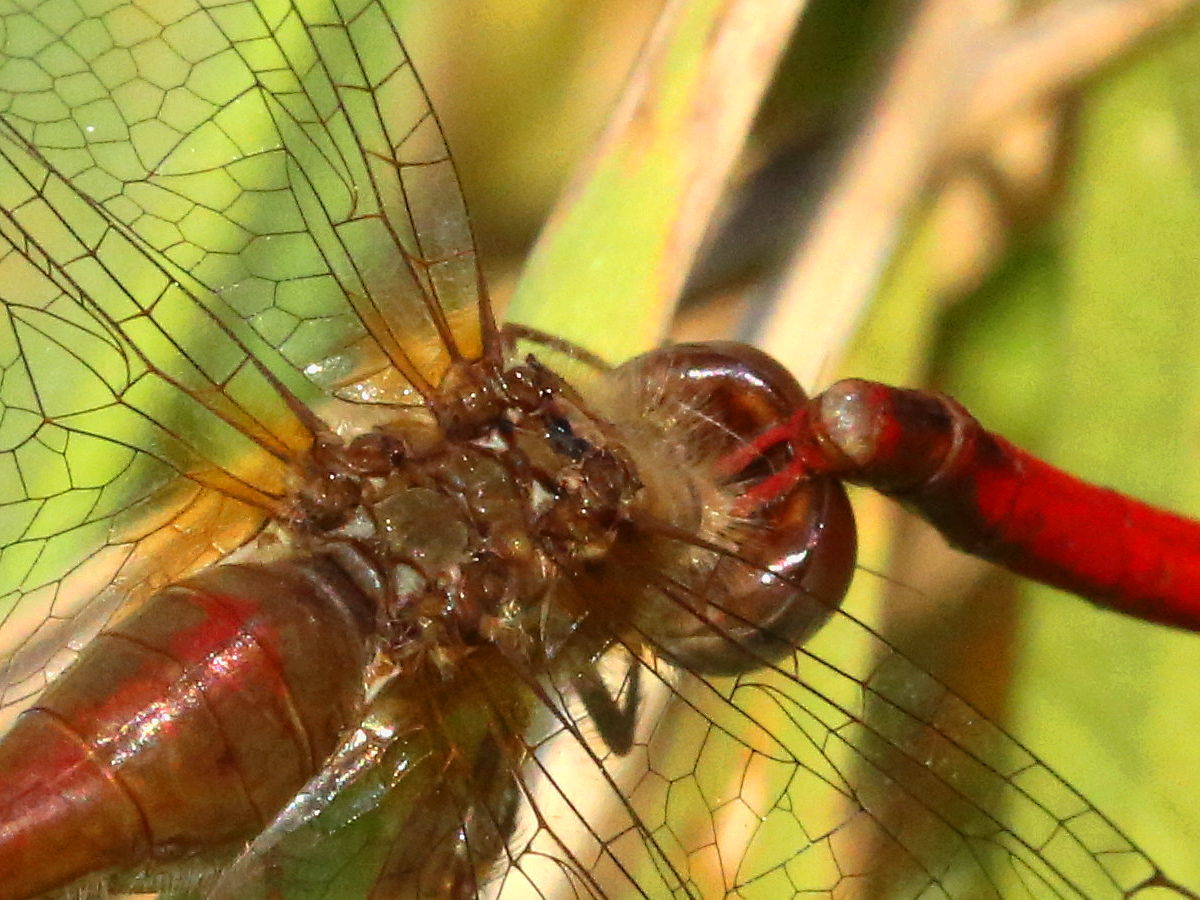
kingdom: Animalia
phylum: Arthropoda
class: Insecta
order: Odonata
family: Libellulidae
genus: Sympetrum
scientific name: Sympetrum vicinum
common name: Autumn meadowhawk
